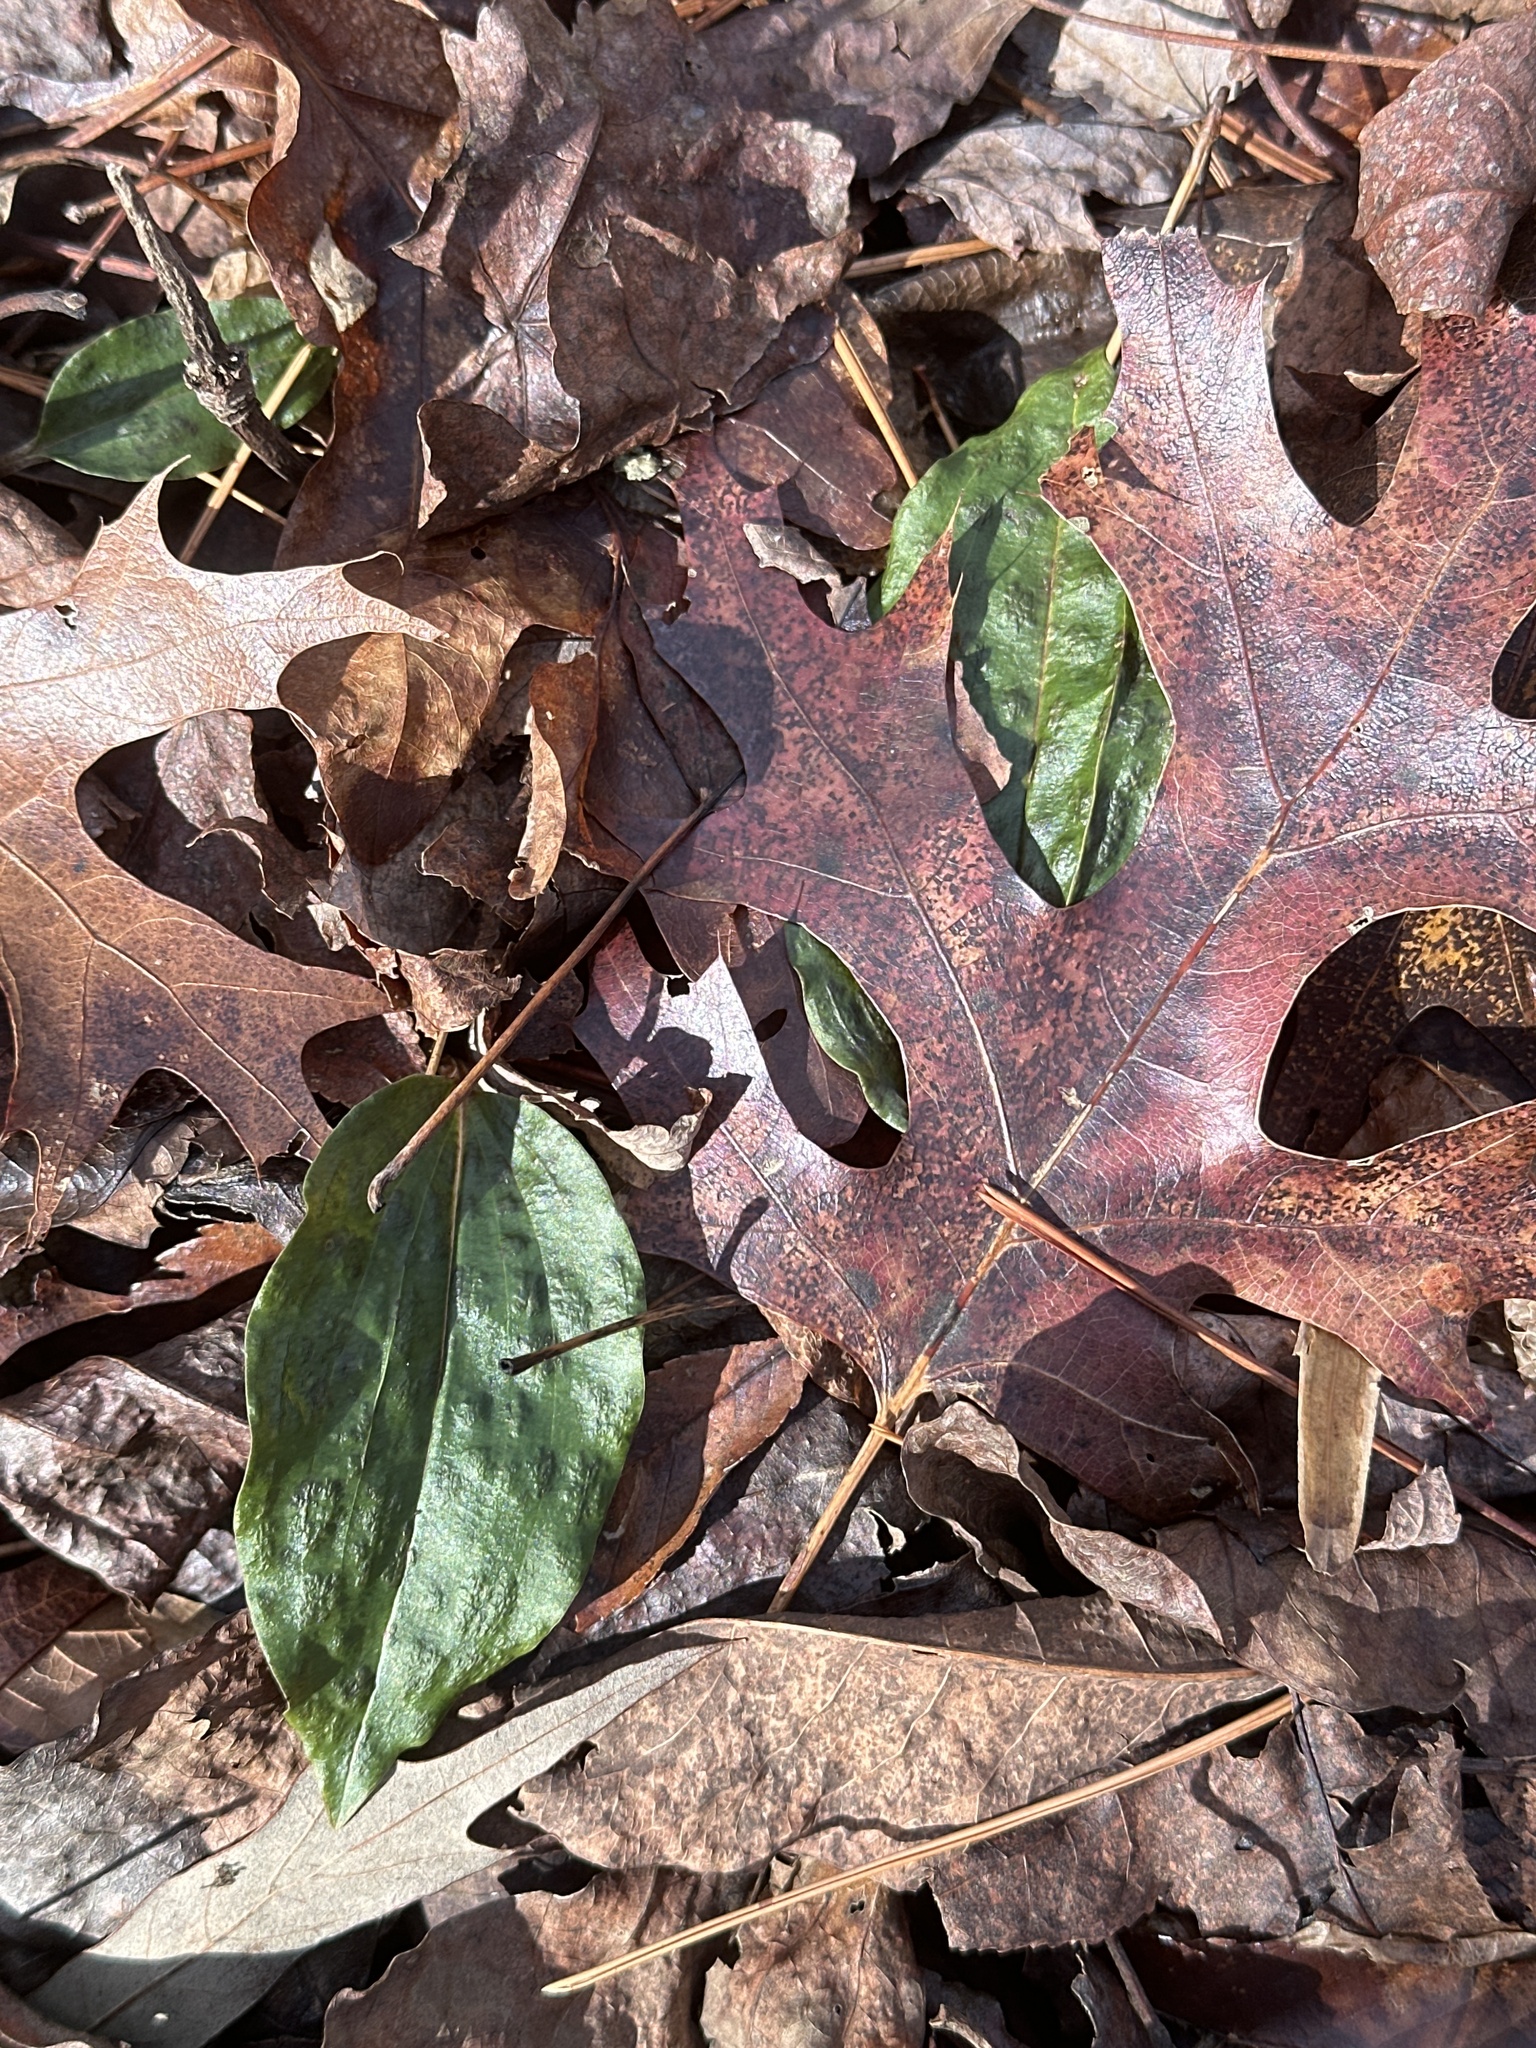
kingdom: Plantae
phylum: Tracheophyta
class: Liliopsida
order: Asparagales
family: Orchidaceae
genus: Tipularia
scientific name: Tipularia discolor
